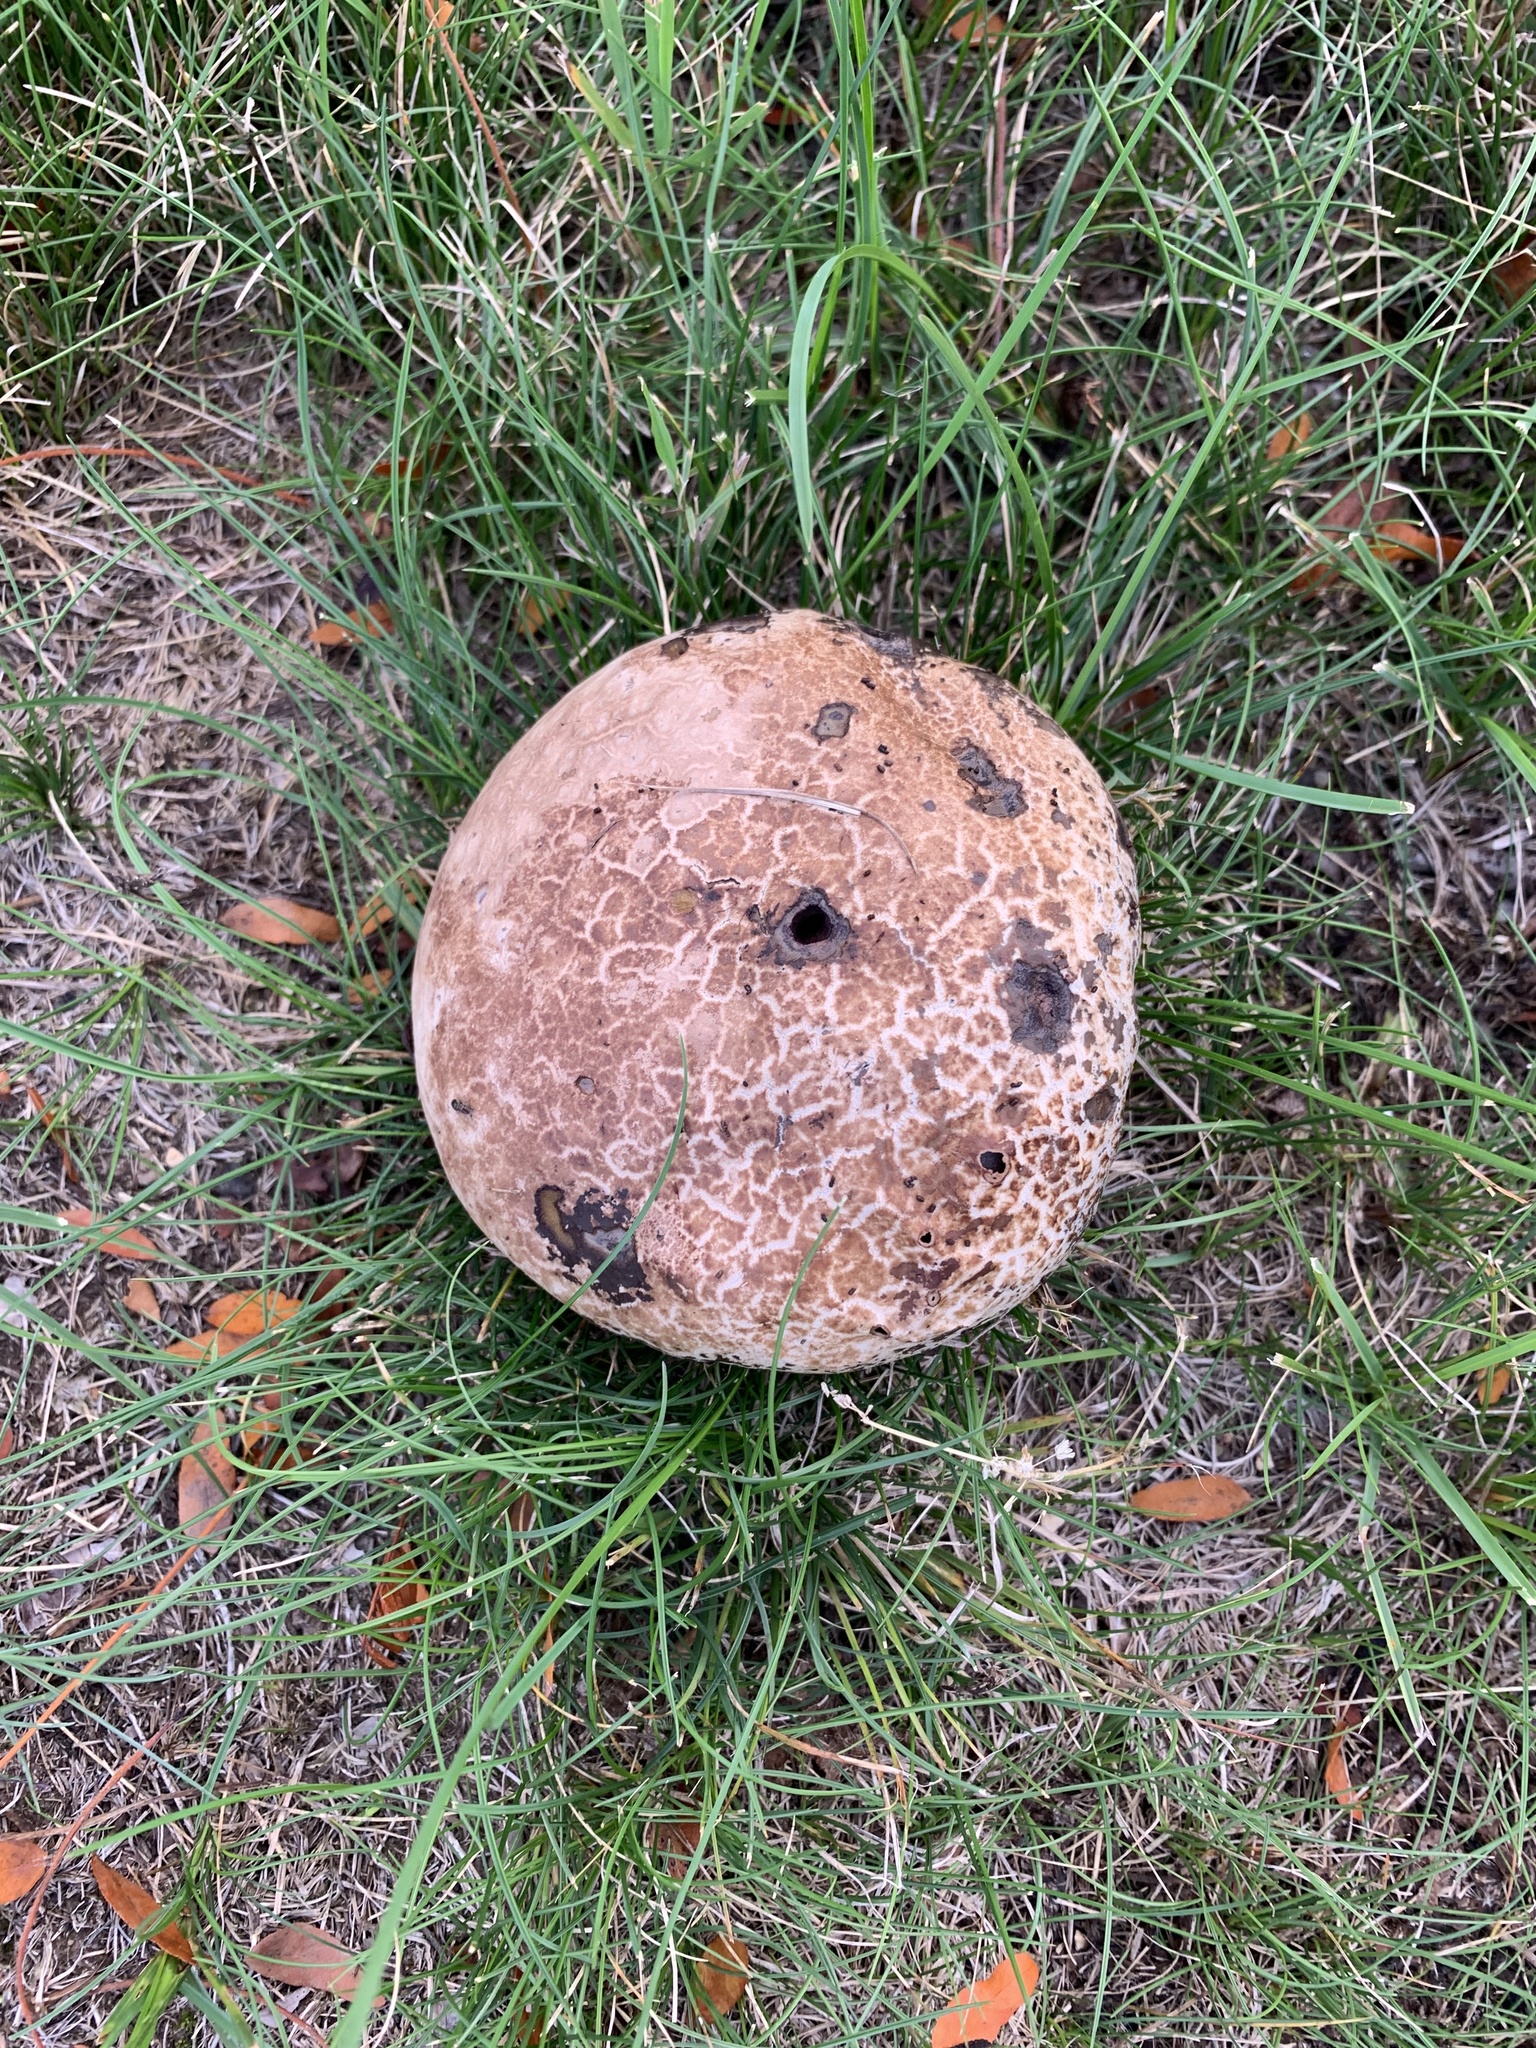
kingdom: Fungi
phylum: Basidiomycota
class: Agaricomycetes
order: Agaricales
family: Lycoperdaceae
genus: Calvatia
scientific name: Calvatia cyathiformis
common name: Purple-spored puffball
